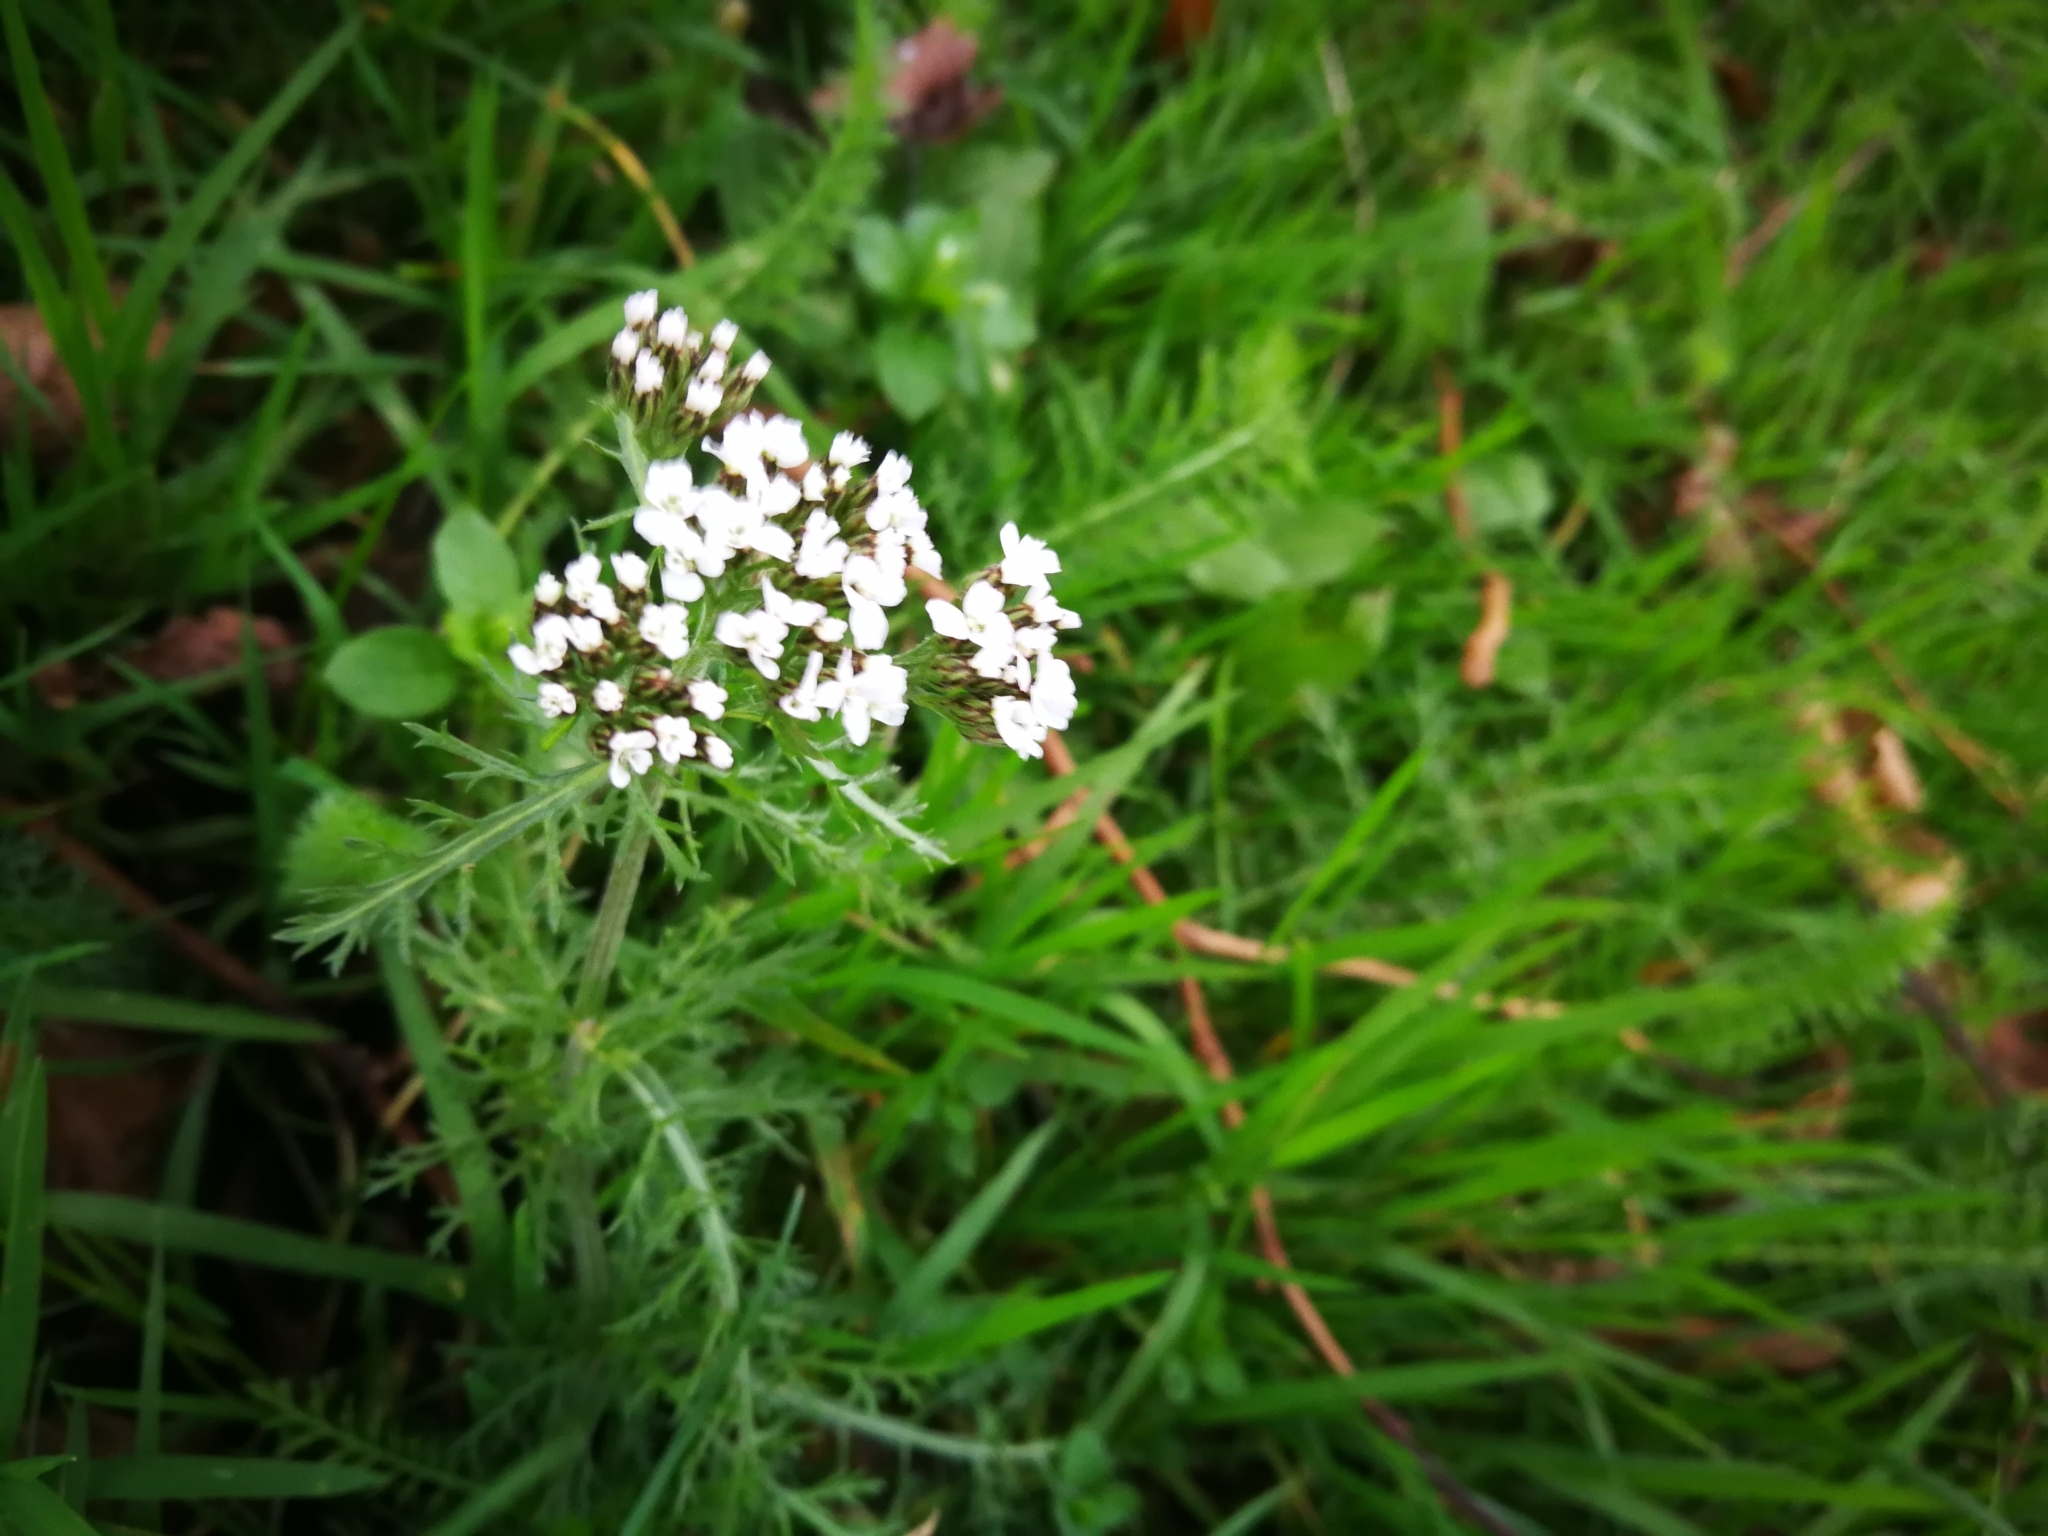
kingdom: Plantae
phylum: Tracheophyta
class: Magnoliopsida
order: Asterales
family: Asteraceae
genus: Achillea
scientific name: Achillea millefolium
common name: Yarrow
